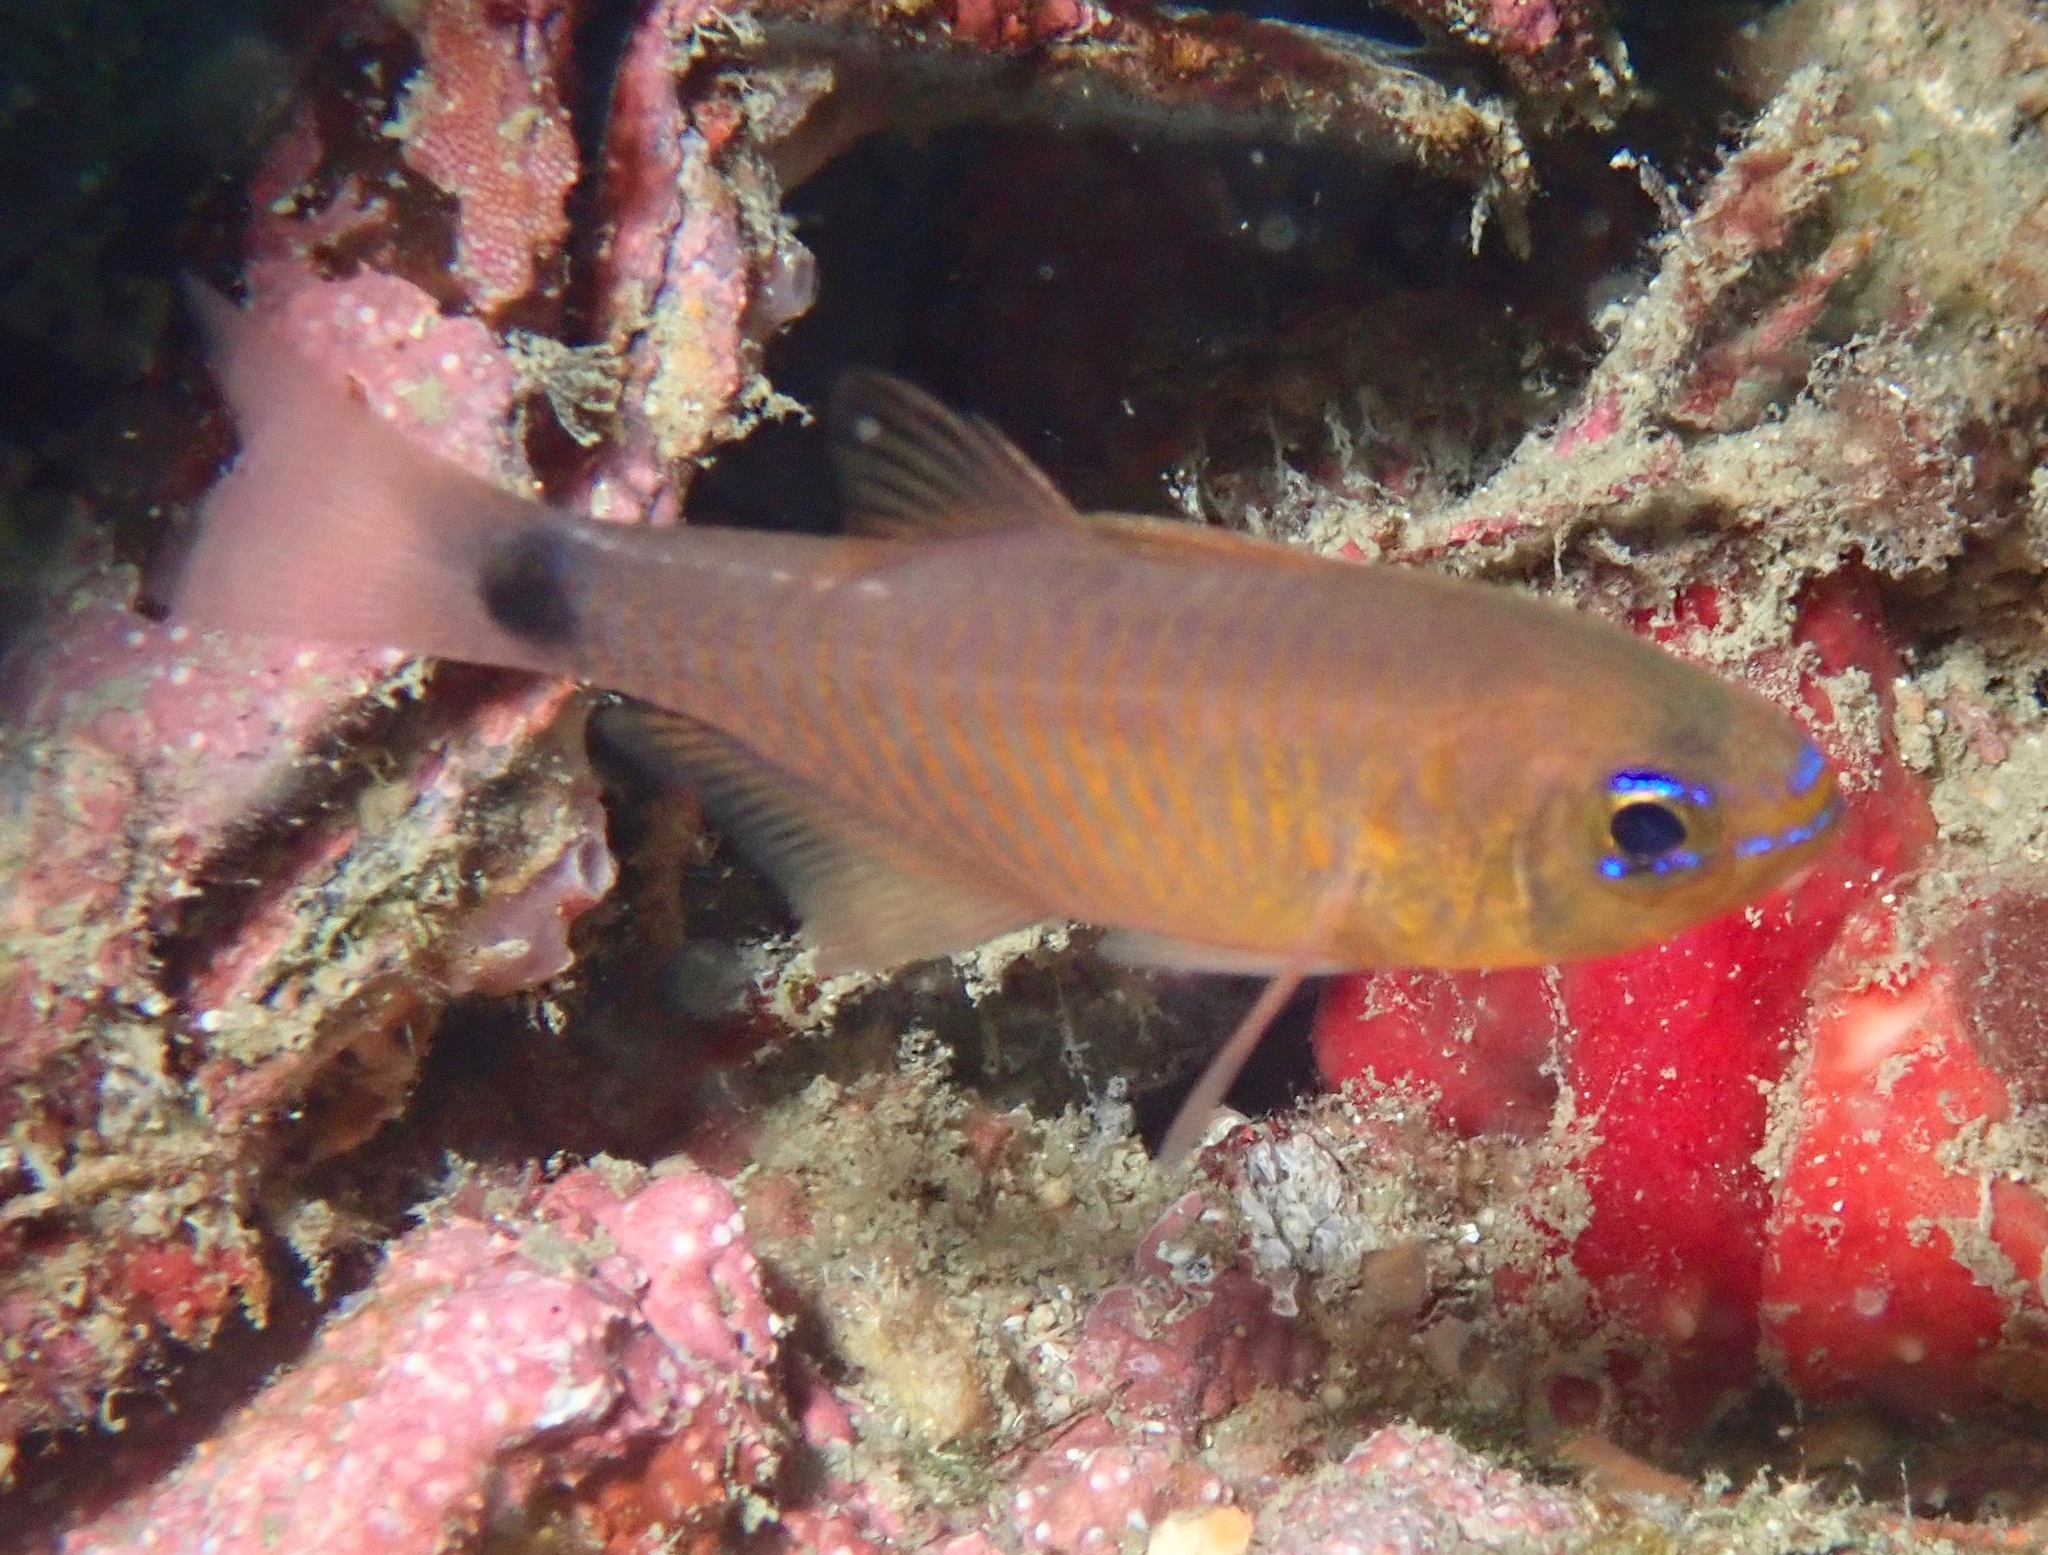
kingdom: Animalia
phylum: Chordata
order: Perciformes
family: Apogonidae
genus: Taeniamia
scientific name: Taeniamia fucata
